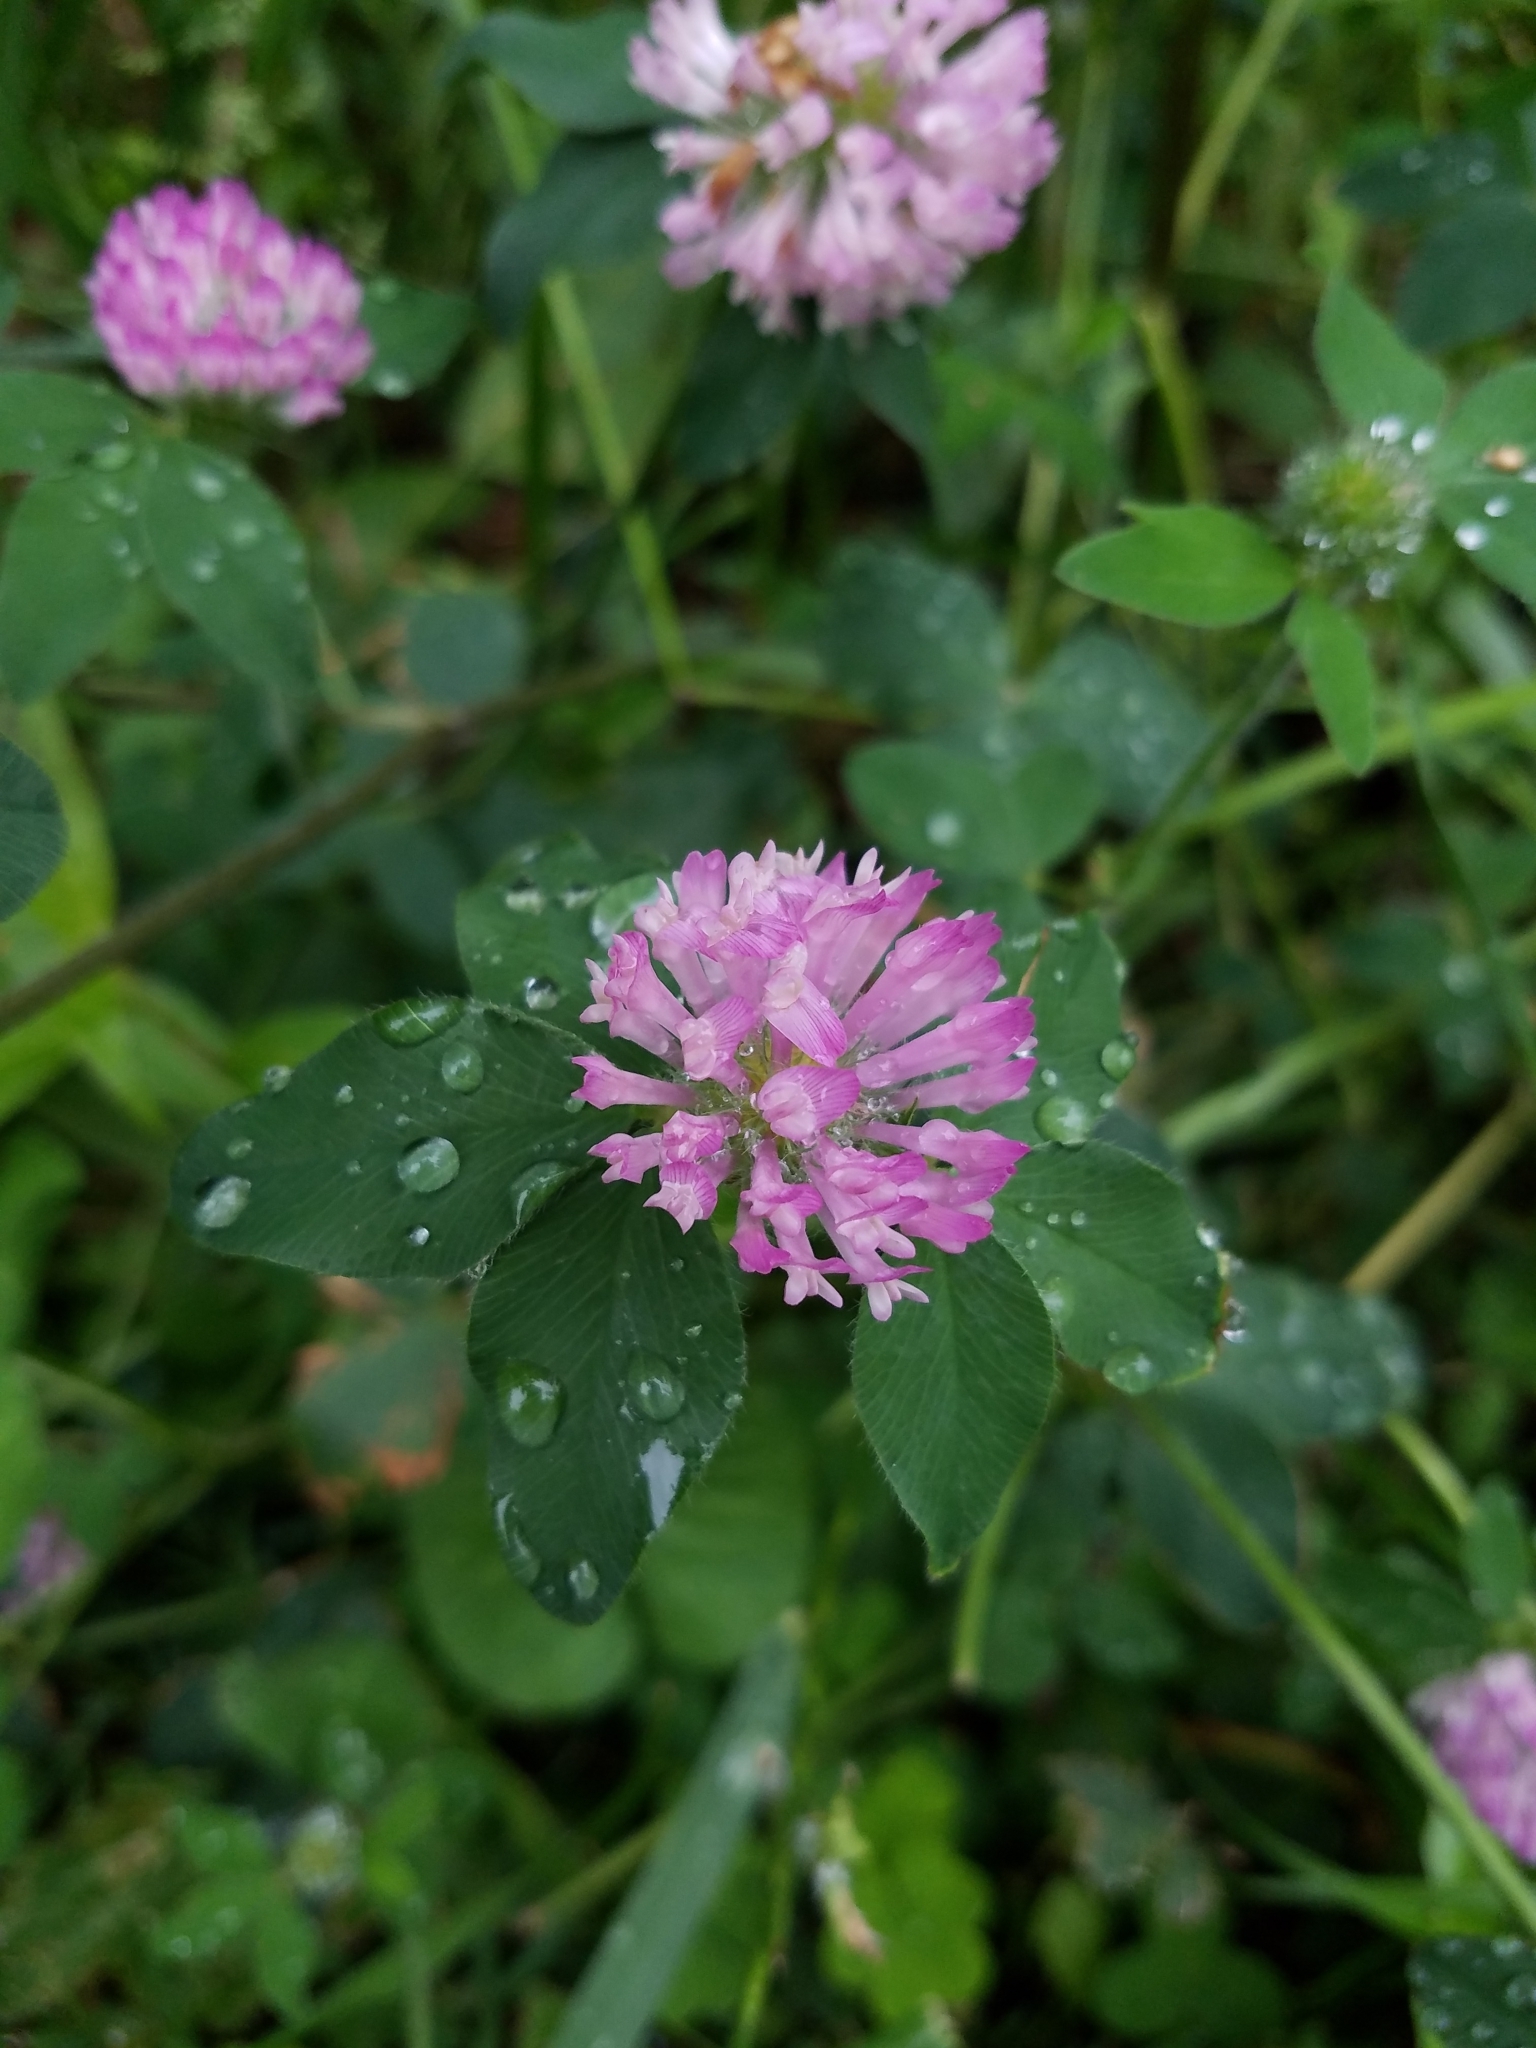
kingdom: Plantae
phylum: Tracheophyta
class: Magnoliopsida
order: Fabales
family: Fabaceae
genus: Trifolium
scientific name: Trifolium pratense
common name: Red clover
